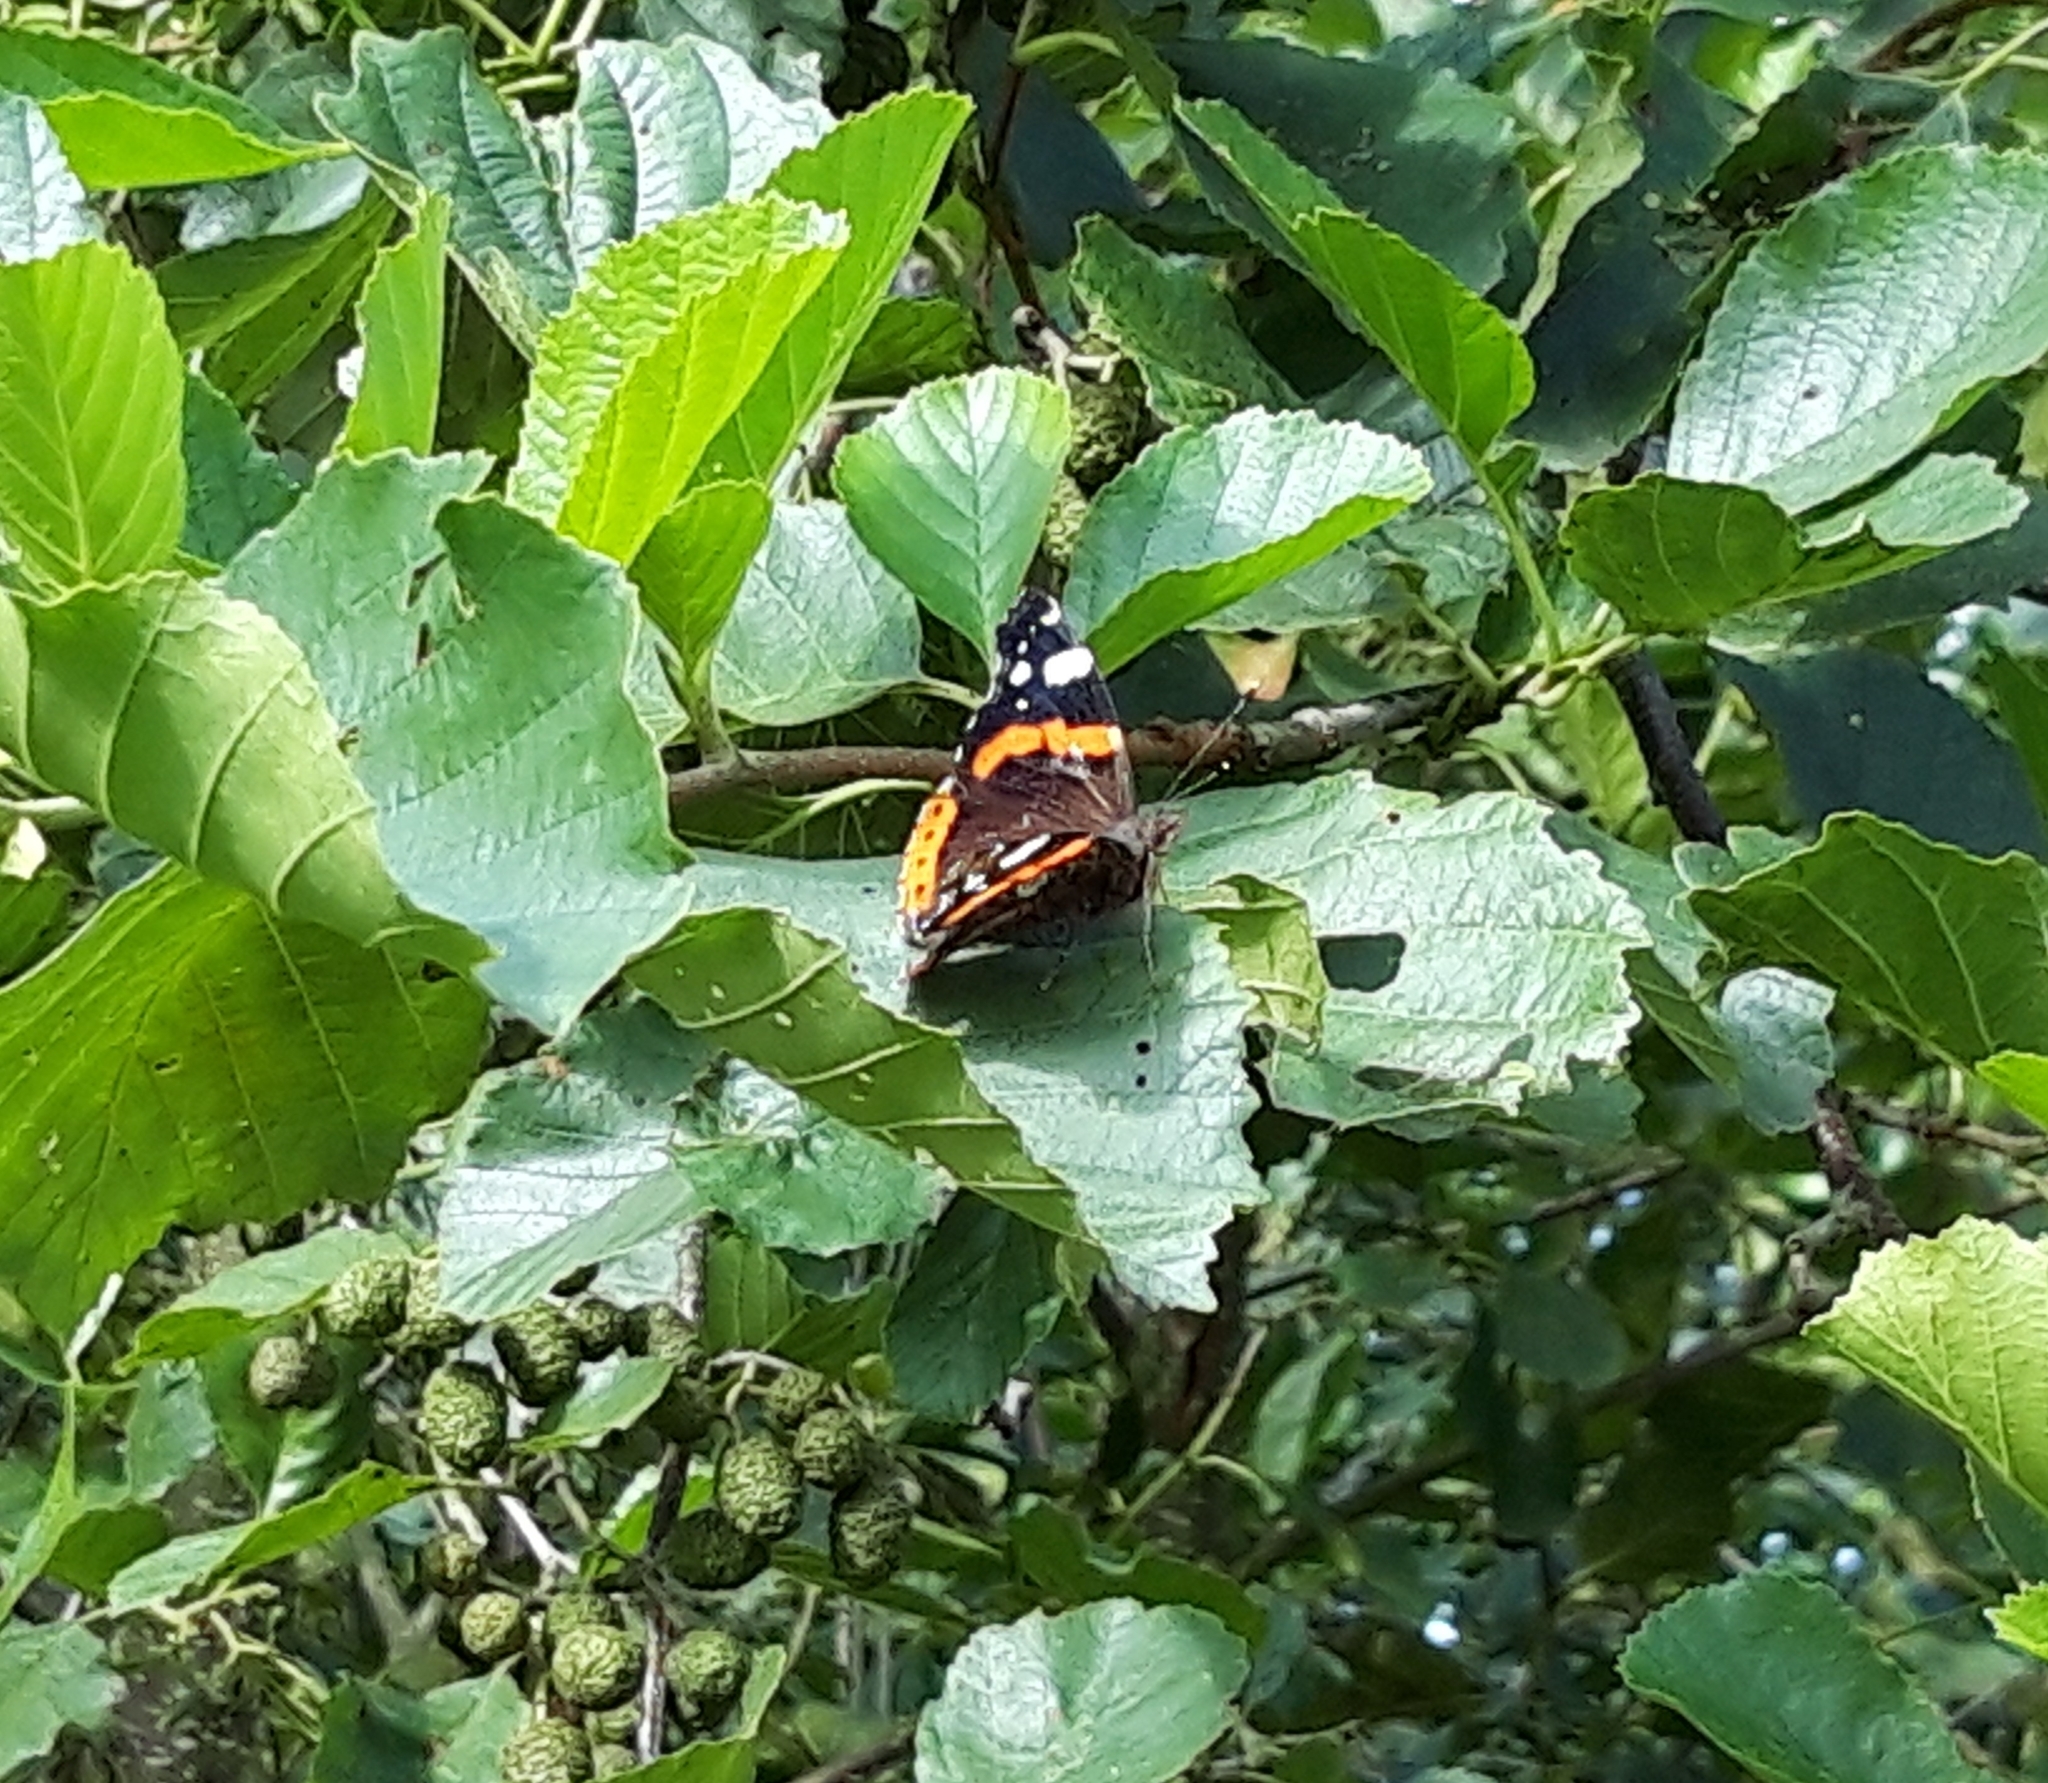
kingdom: Animalia
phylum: Arthropoda
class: Insecta
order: Lepidoptera
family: Nymphalidae
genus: Vanessa
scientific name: Vanessa atalanta
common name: Red admiral
